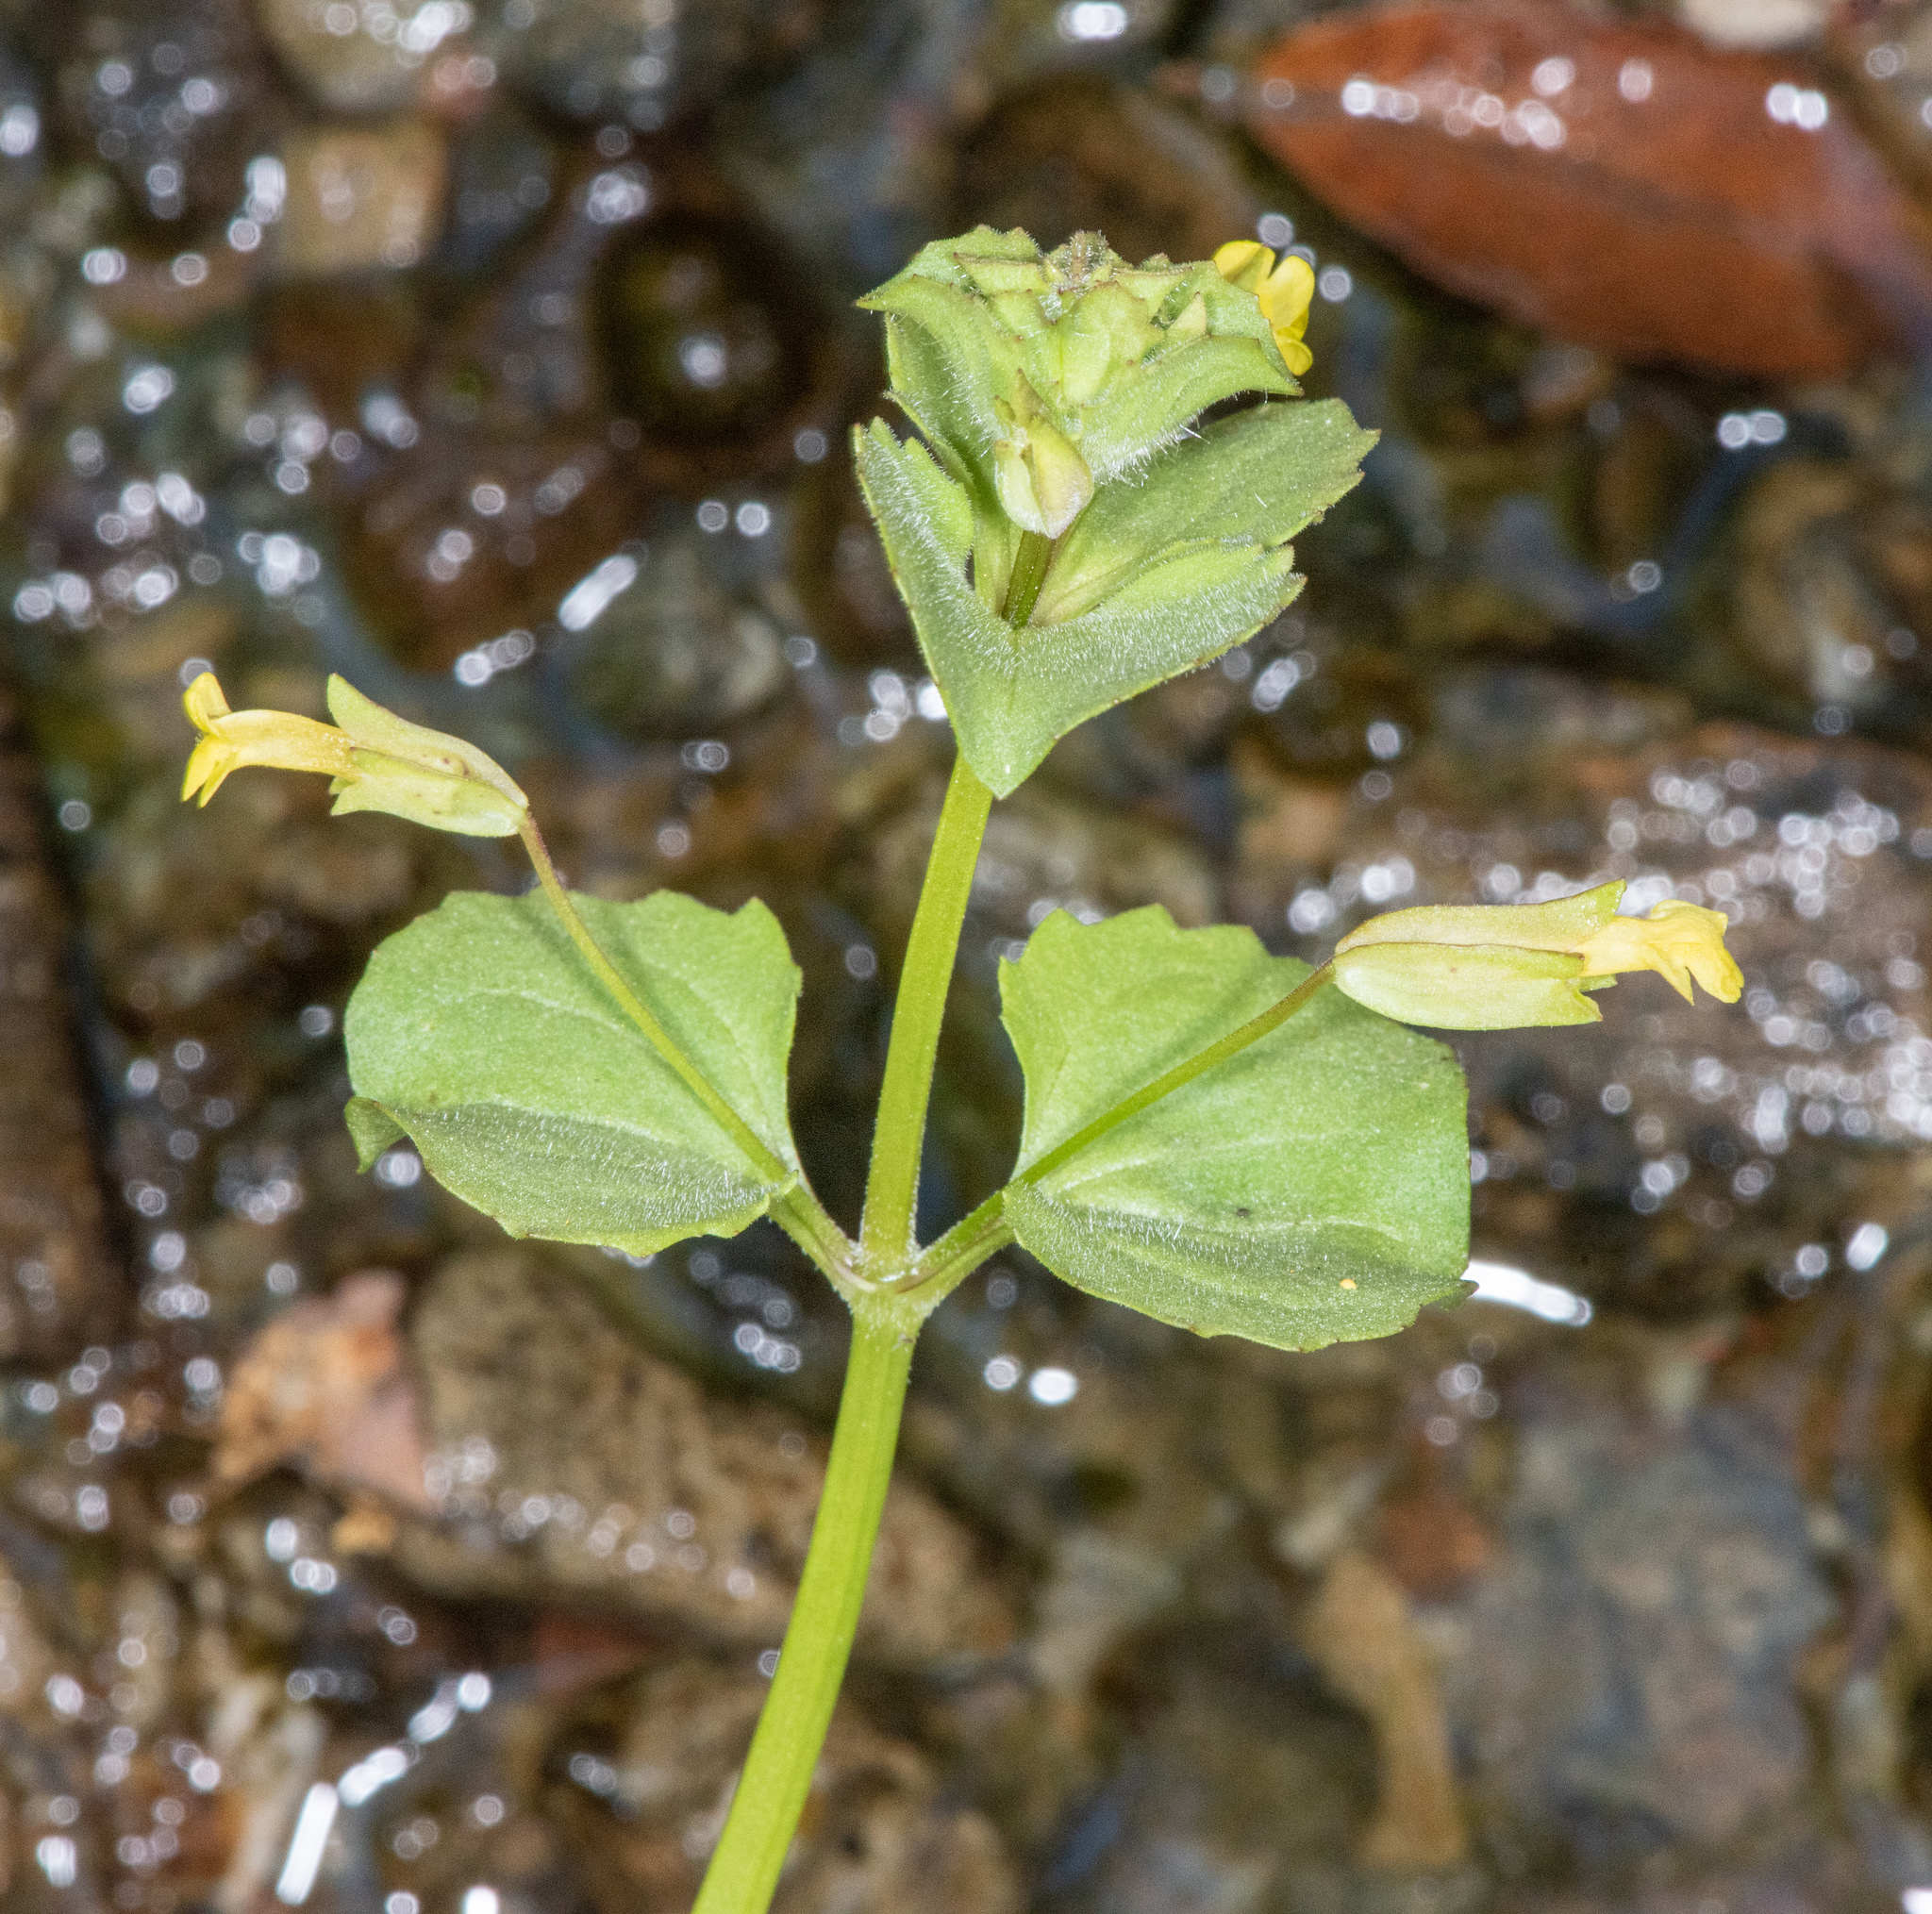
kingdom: Plantae
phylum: Tracheophyta
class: Magnoliopsida
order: Lamiales
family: Phrymaceae
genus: Erythranthe
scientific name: Erythranthe arvensis
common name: Field monkeyflower
